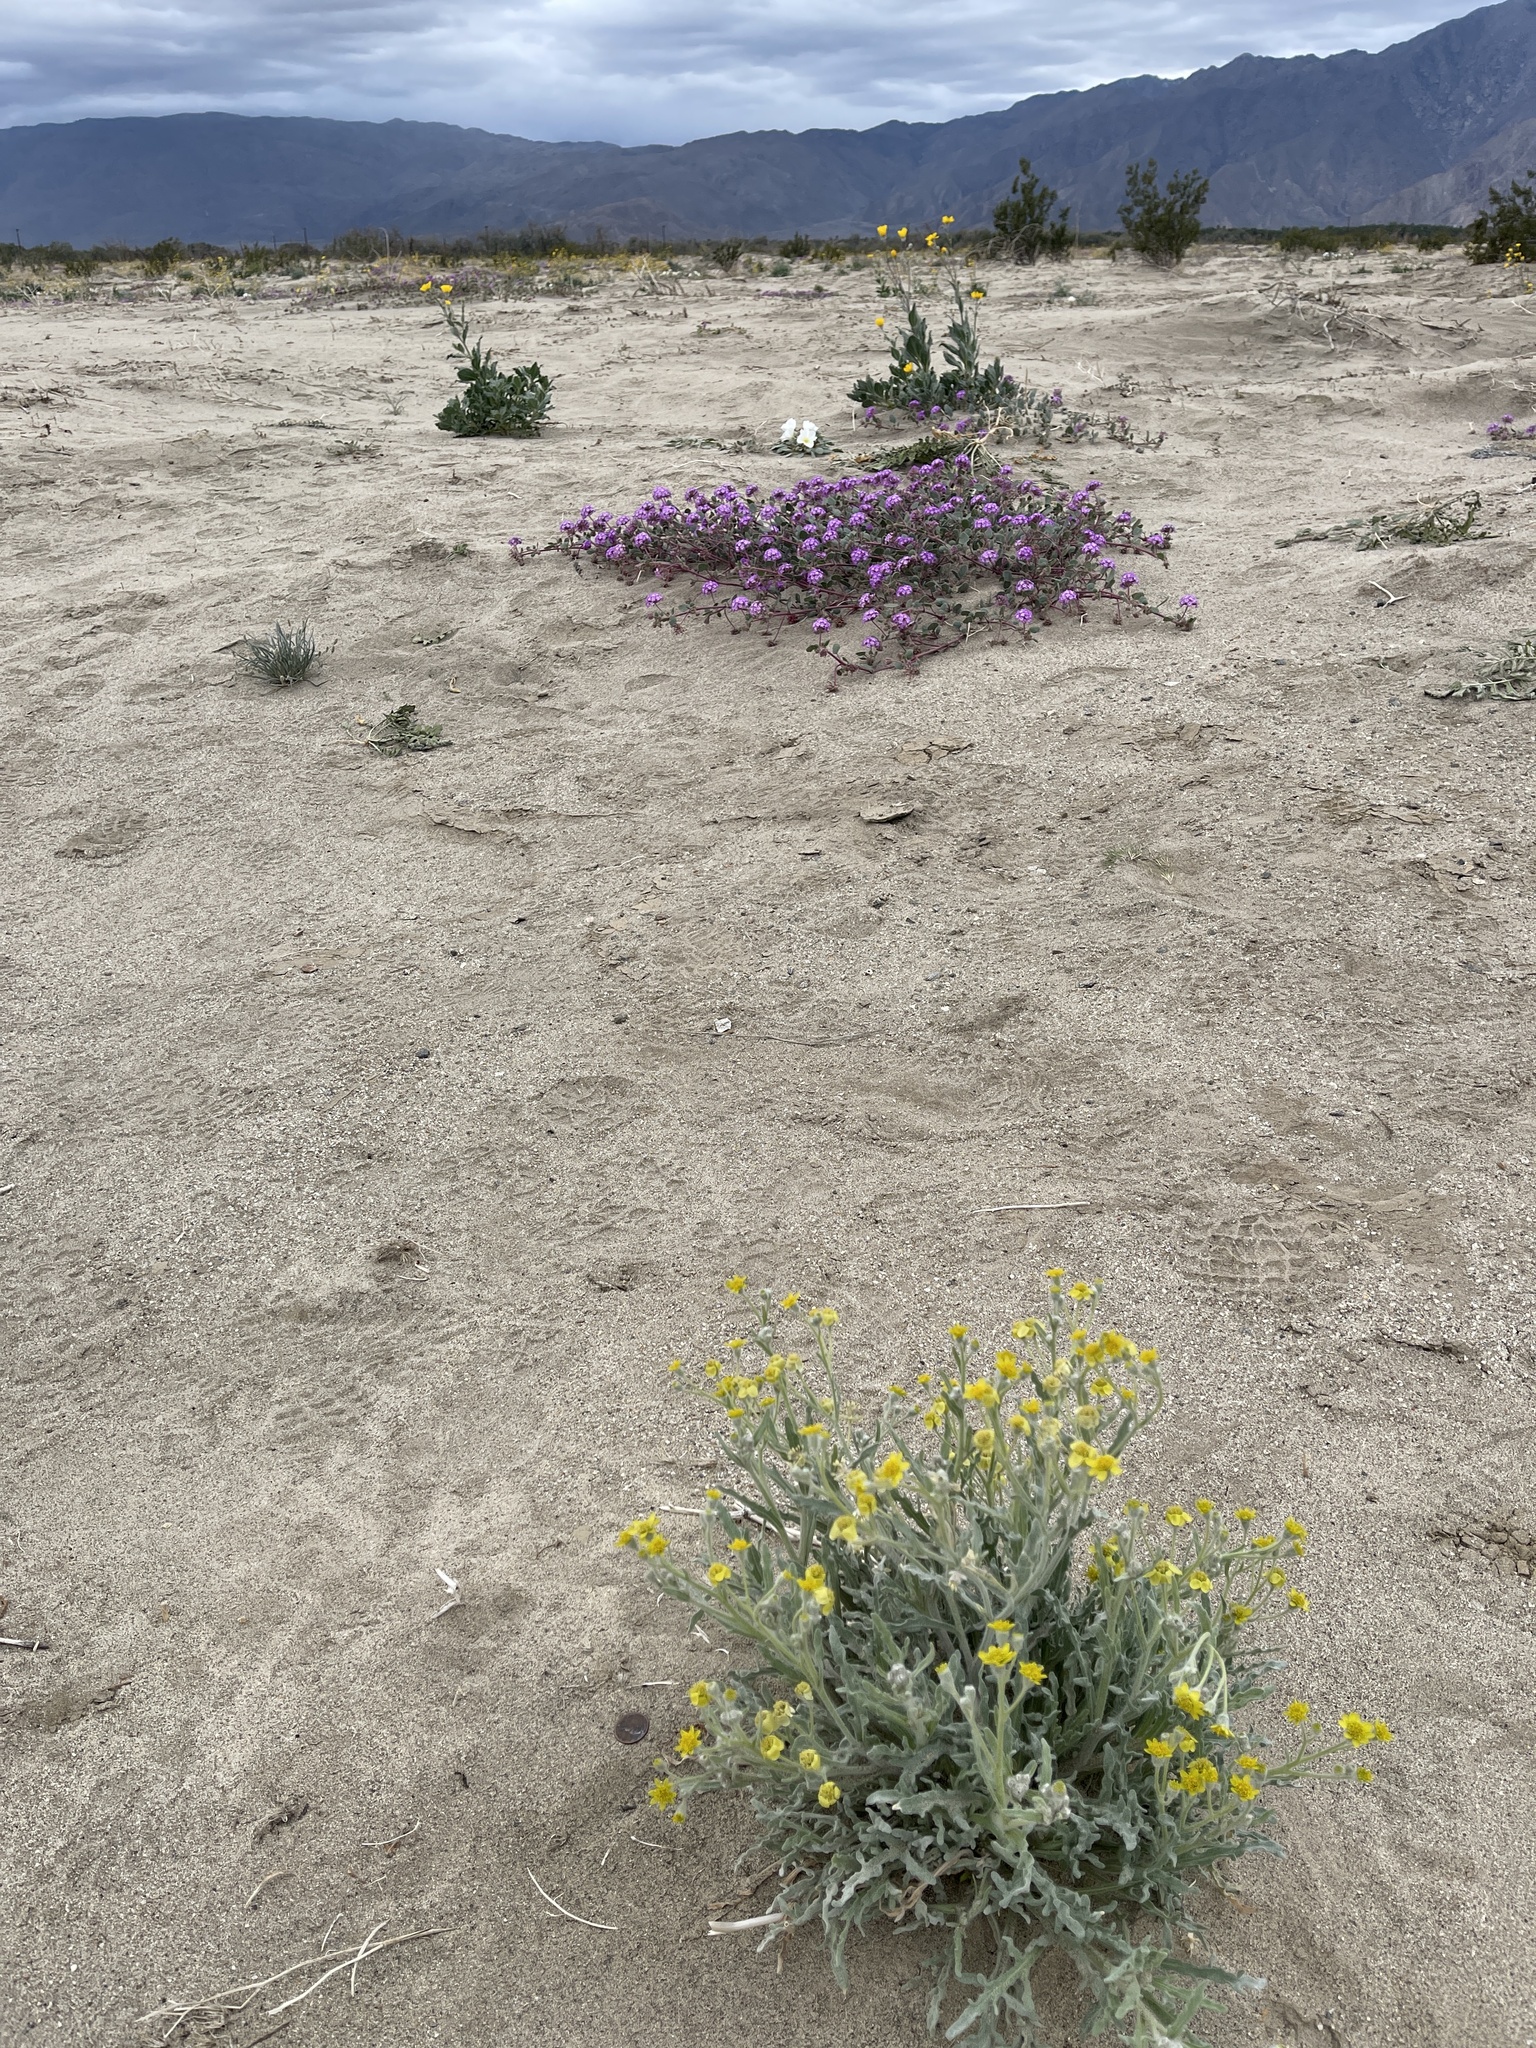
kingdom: Plantae
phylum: Tracheophyta
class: Magnoliopsida
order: Asterales
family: Asteraceae
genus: Baileya
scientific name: Baileya pauciradiata
